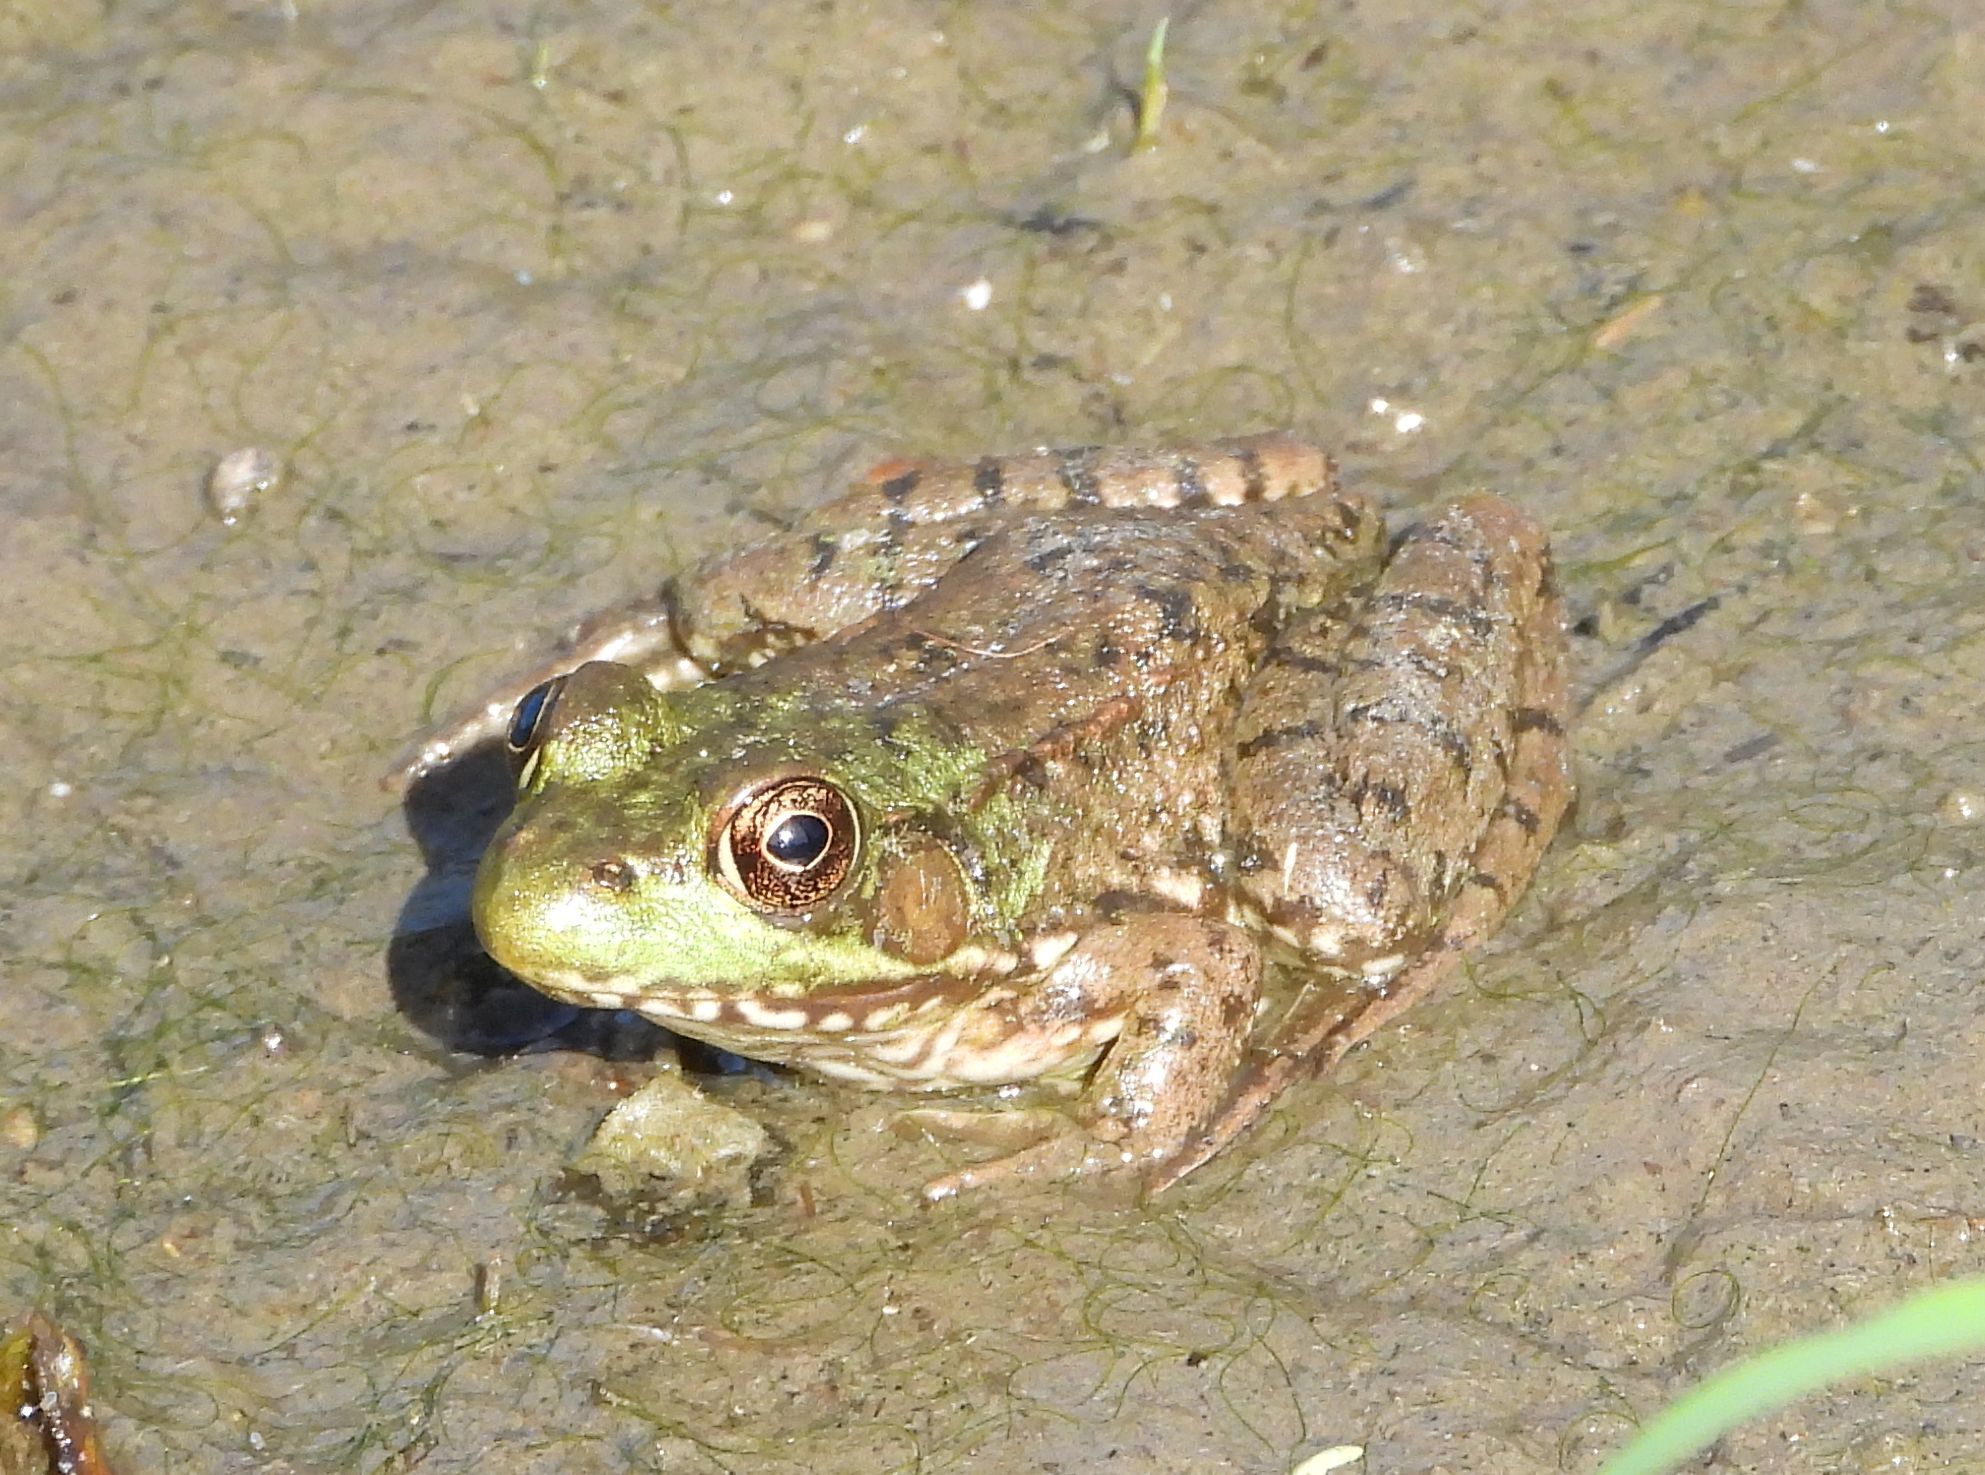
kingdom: Animalia
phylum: Chordata
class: Amphibia
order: Anura
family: Ranidae
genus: Lithobates
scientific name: Lithobates clamitans
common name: Green frog
